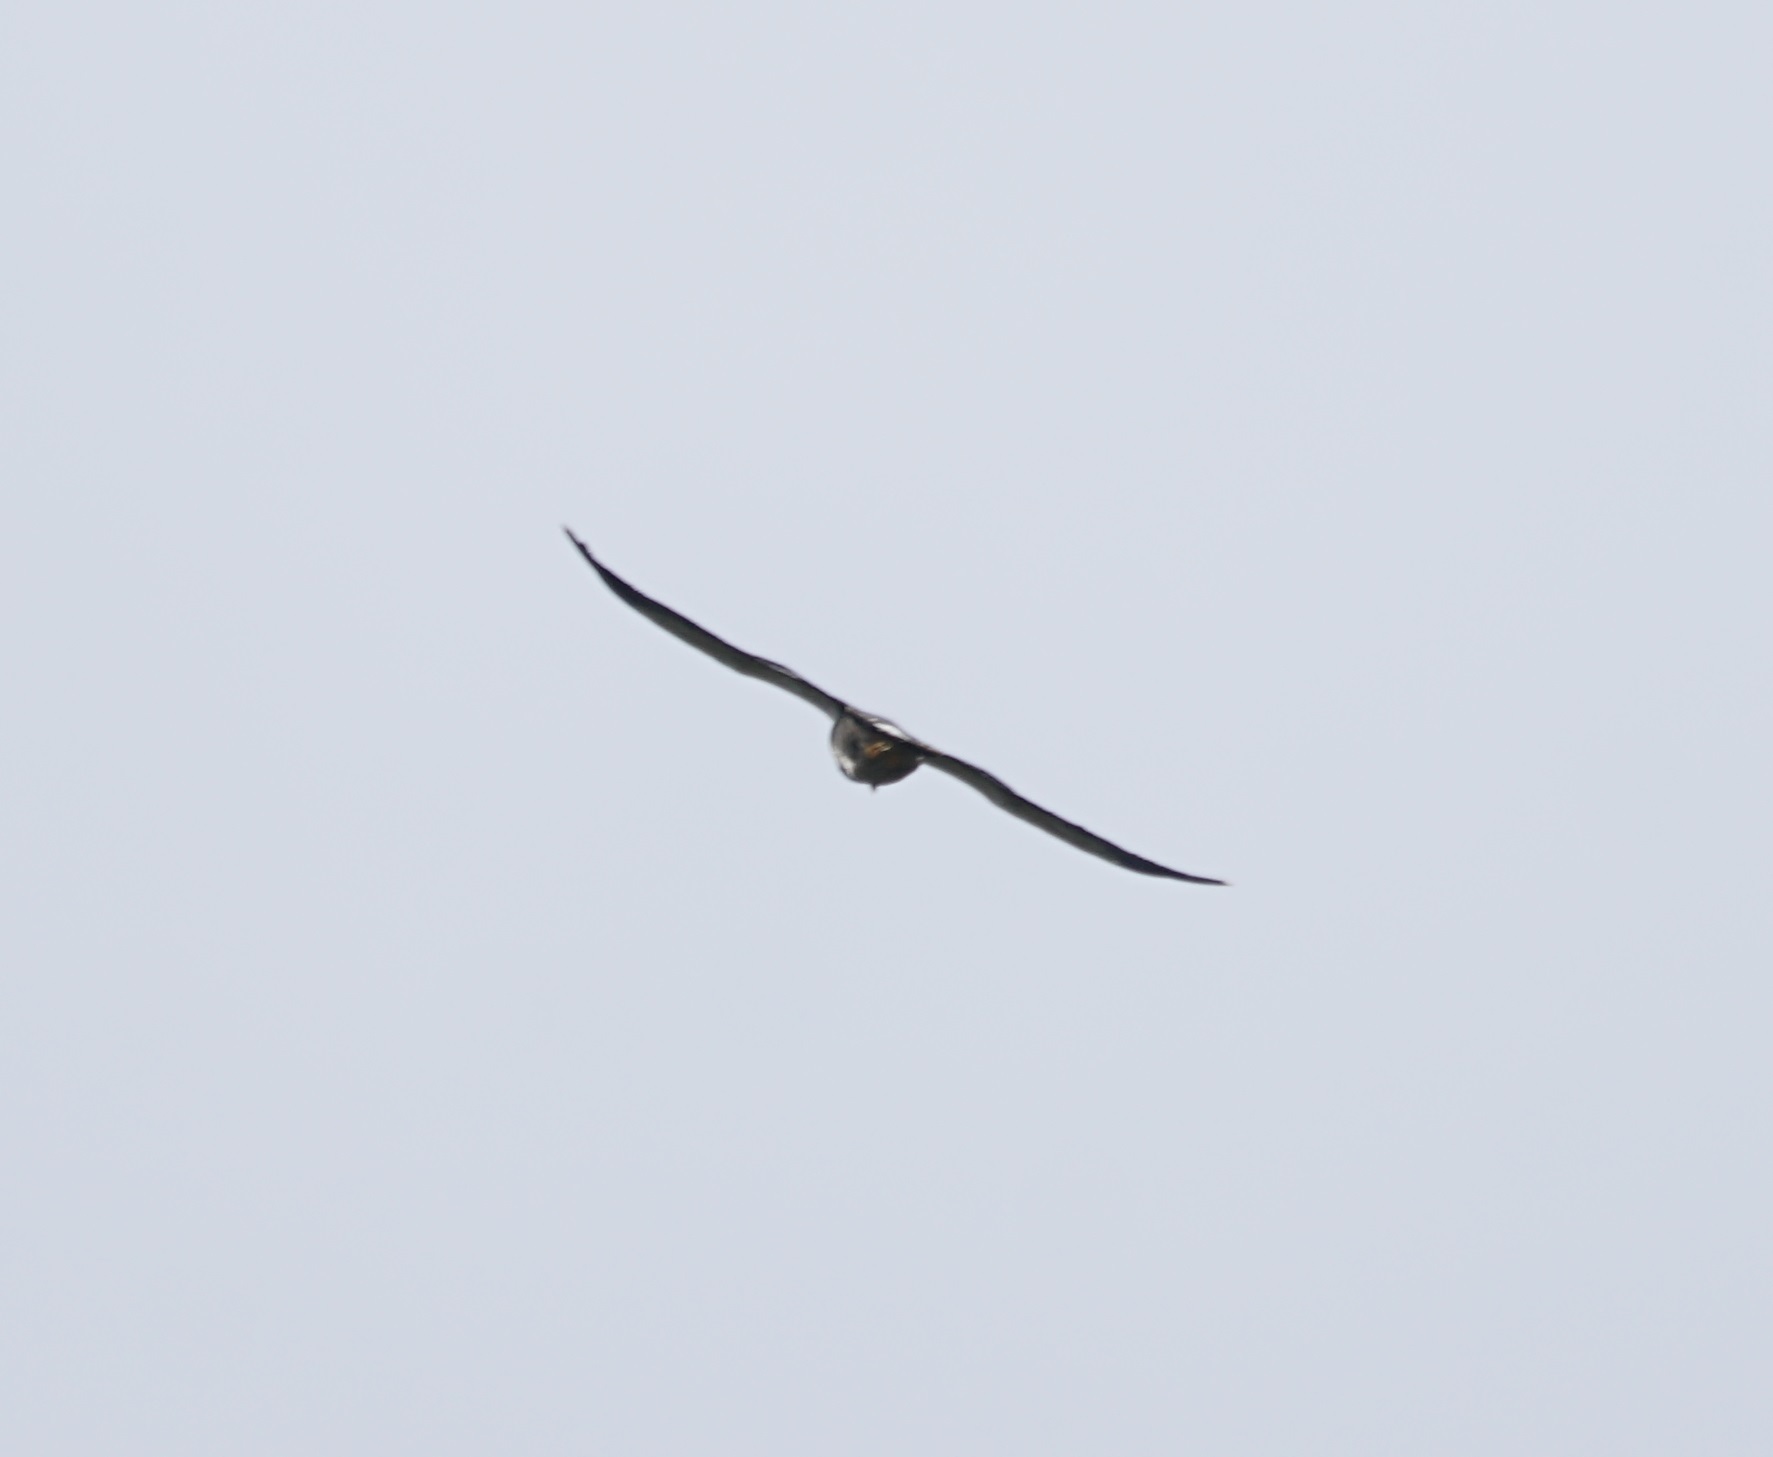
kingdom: Animalia
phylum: Chordata
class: Aves
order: Falconiformes
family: Falconidae
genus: Daptrius
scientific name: Daptrius
